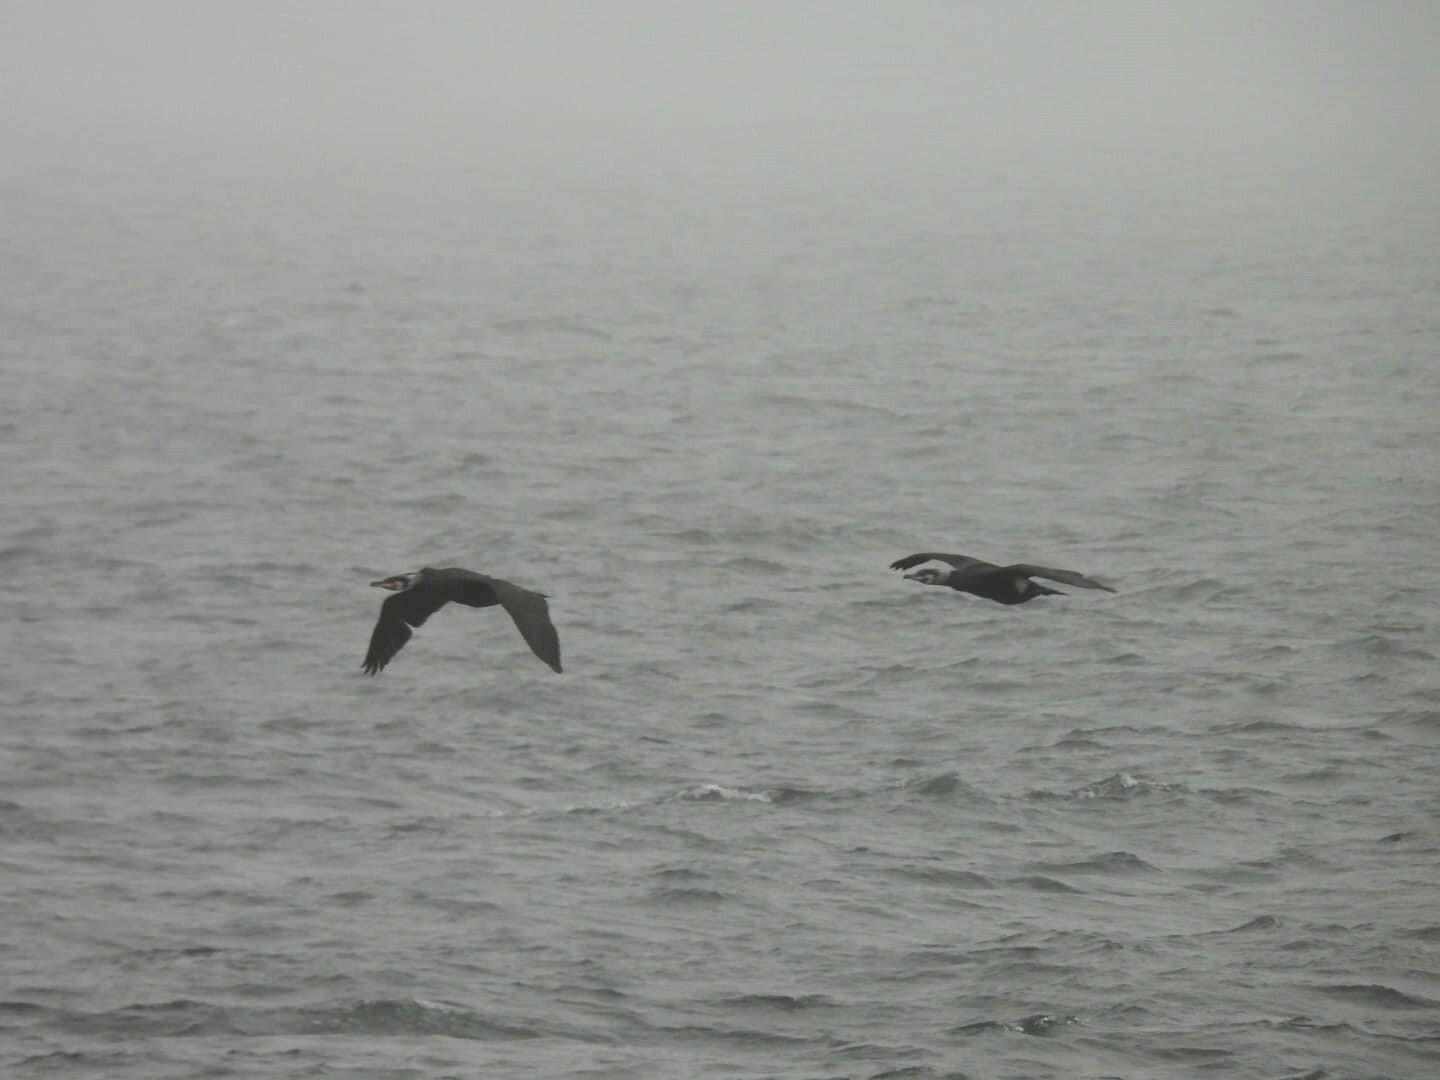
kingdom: Animalia
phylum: Chordata
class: Aves
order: Suliformes
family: Phalacrocoracidae
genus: Phalacrocorax
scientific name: Phalacrocorax carbo
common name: Great cormorant
